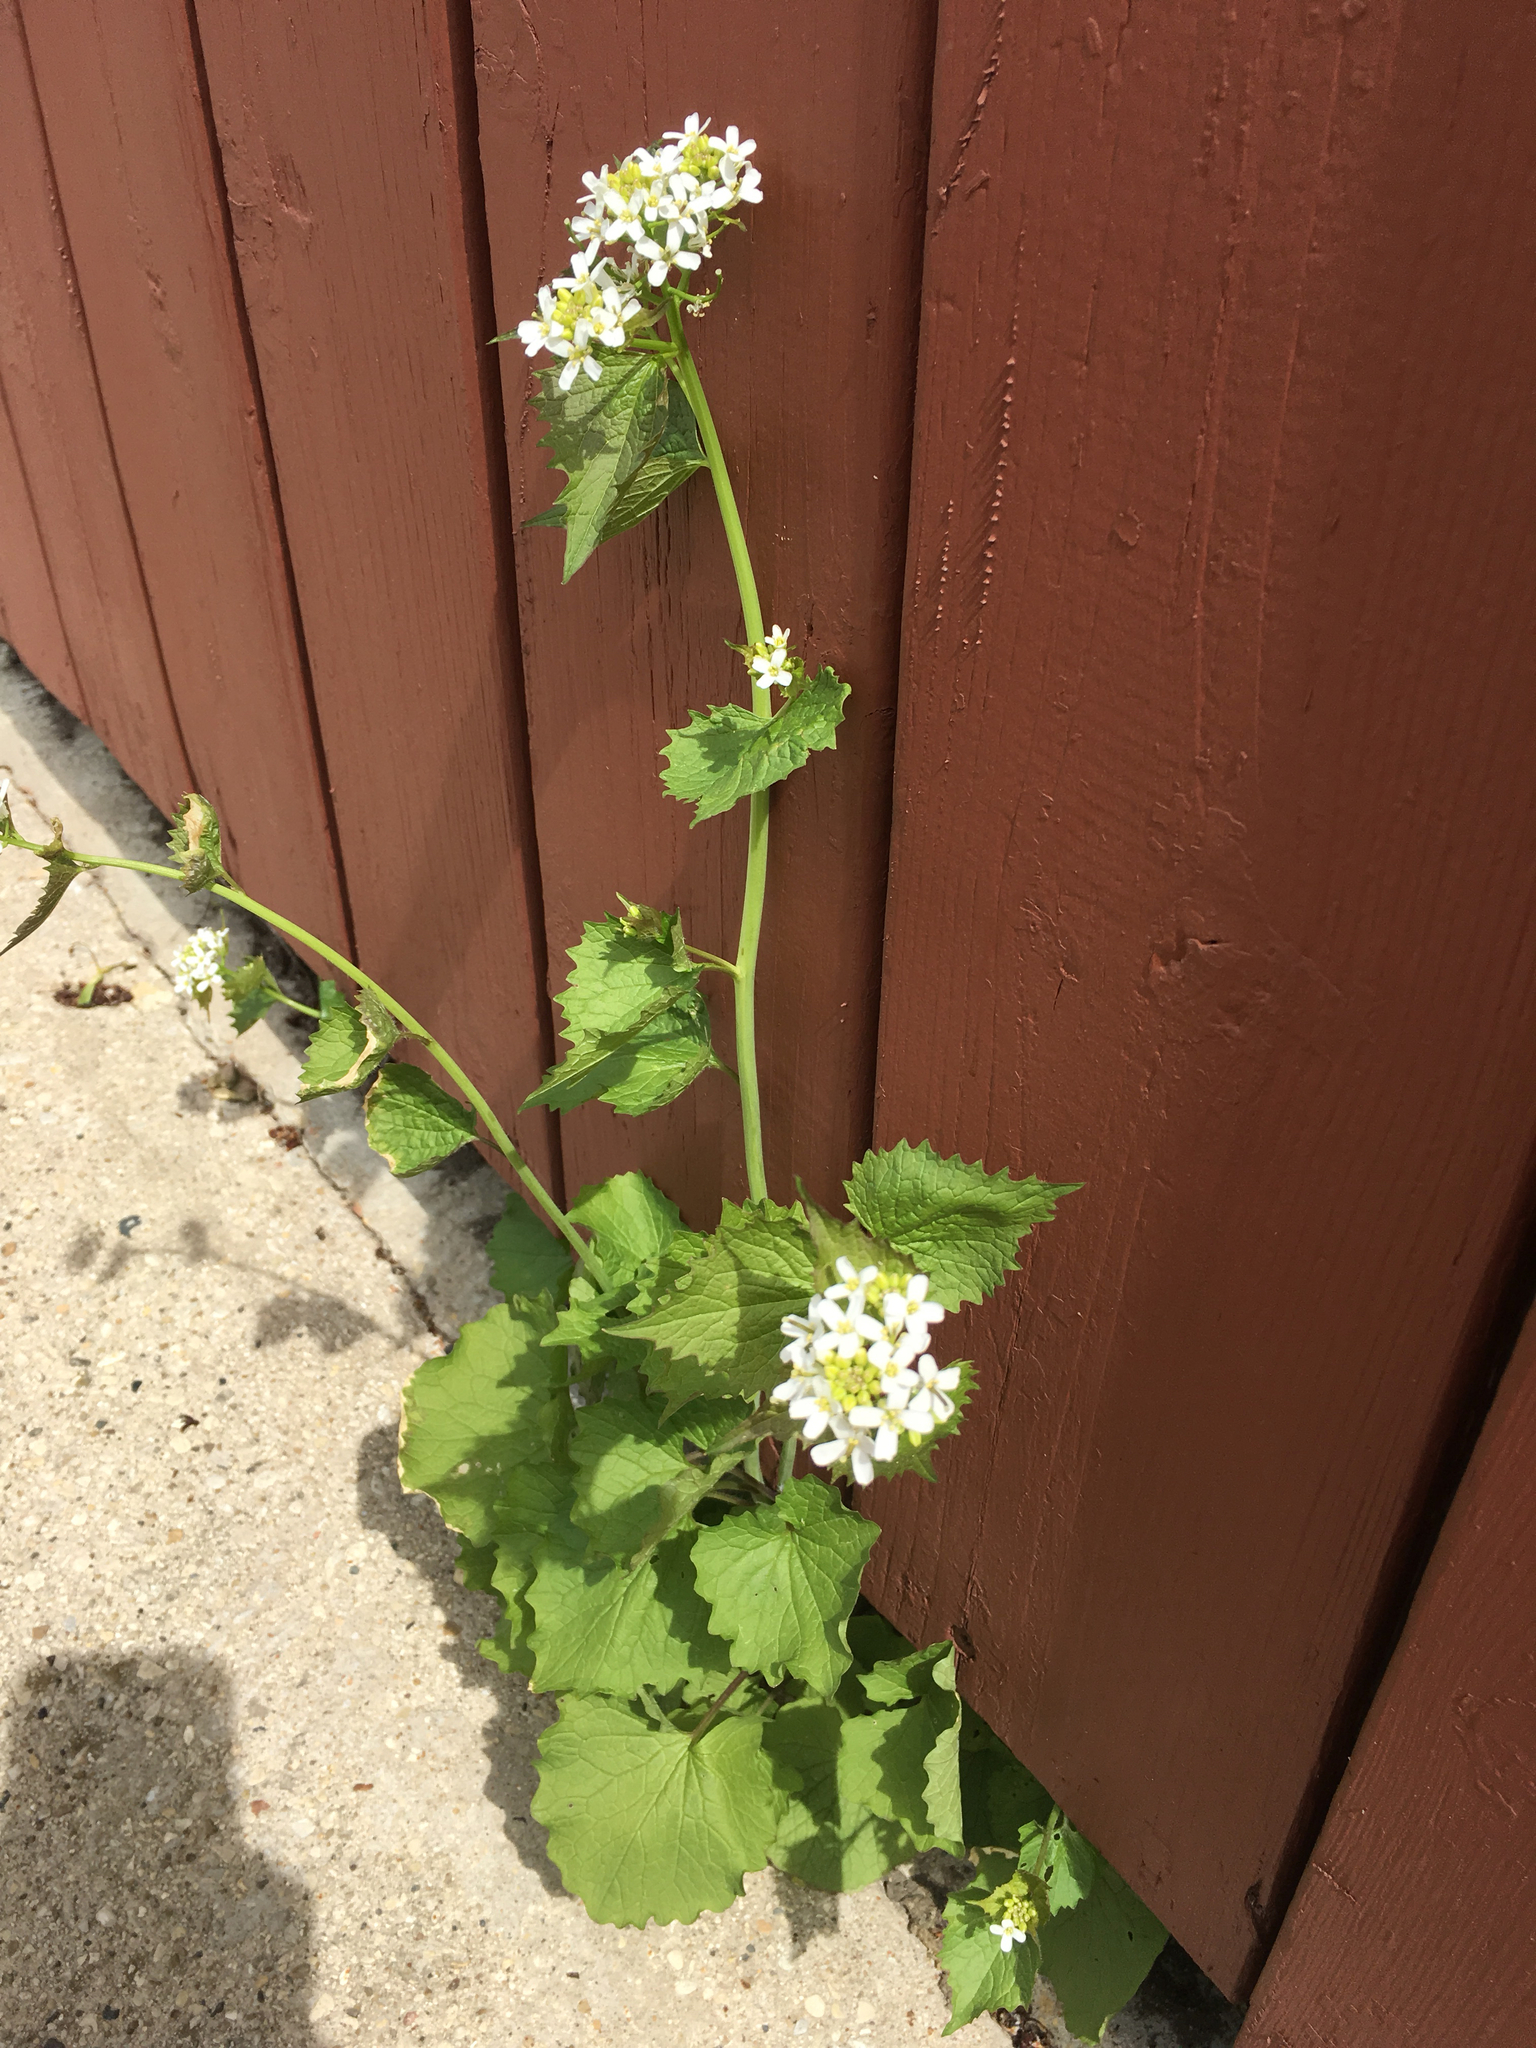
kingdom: Plantae
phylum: Tracheophyta
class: Magnoliopsida
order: Brassicales
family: Brassicaceae
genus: Alliaria
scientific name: Alliaria petiolata
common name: Garlic mustard
